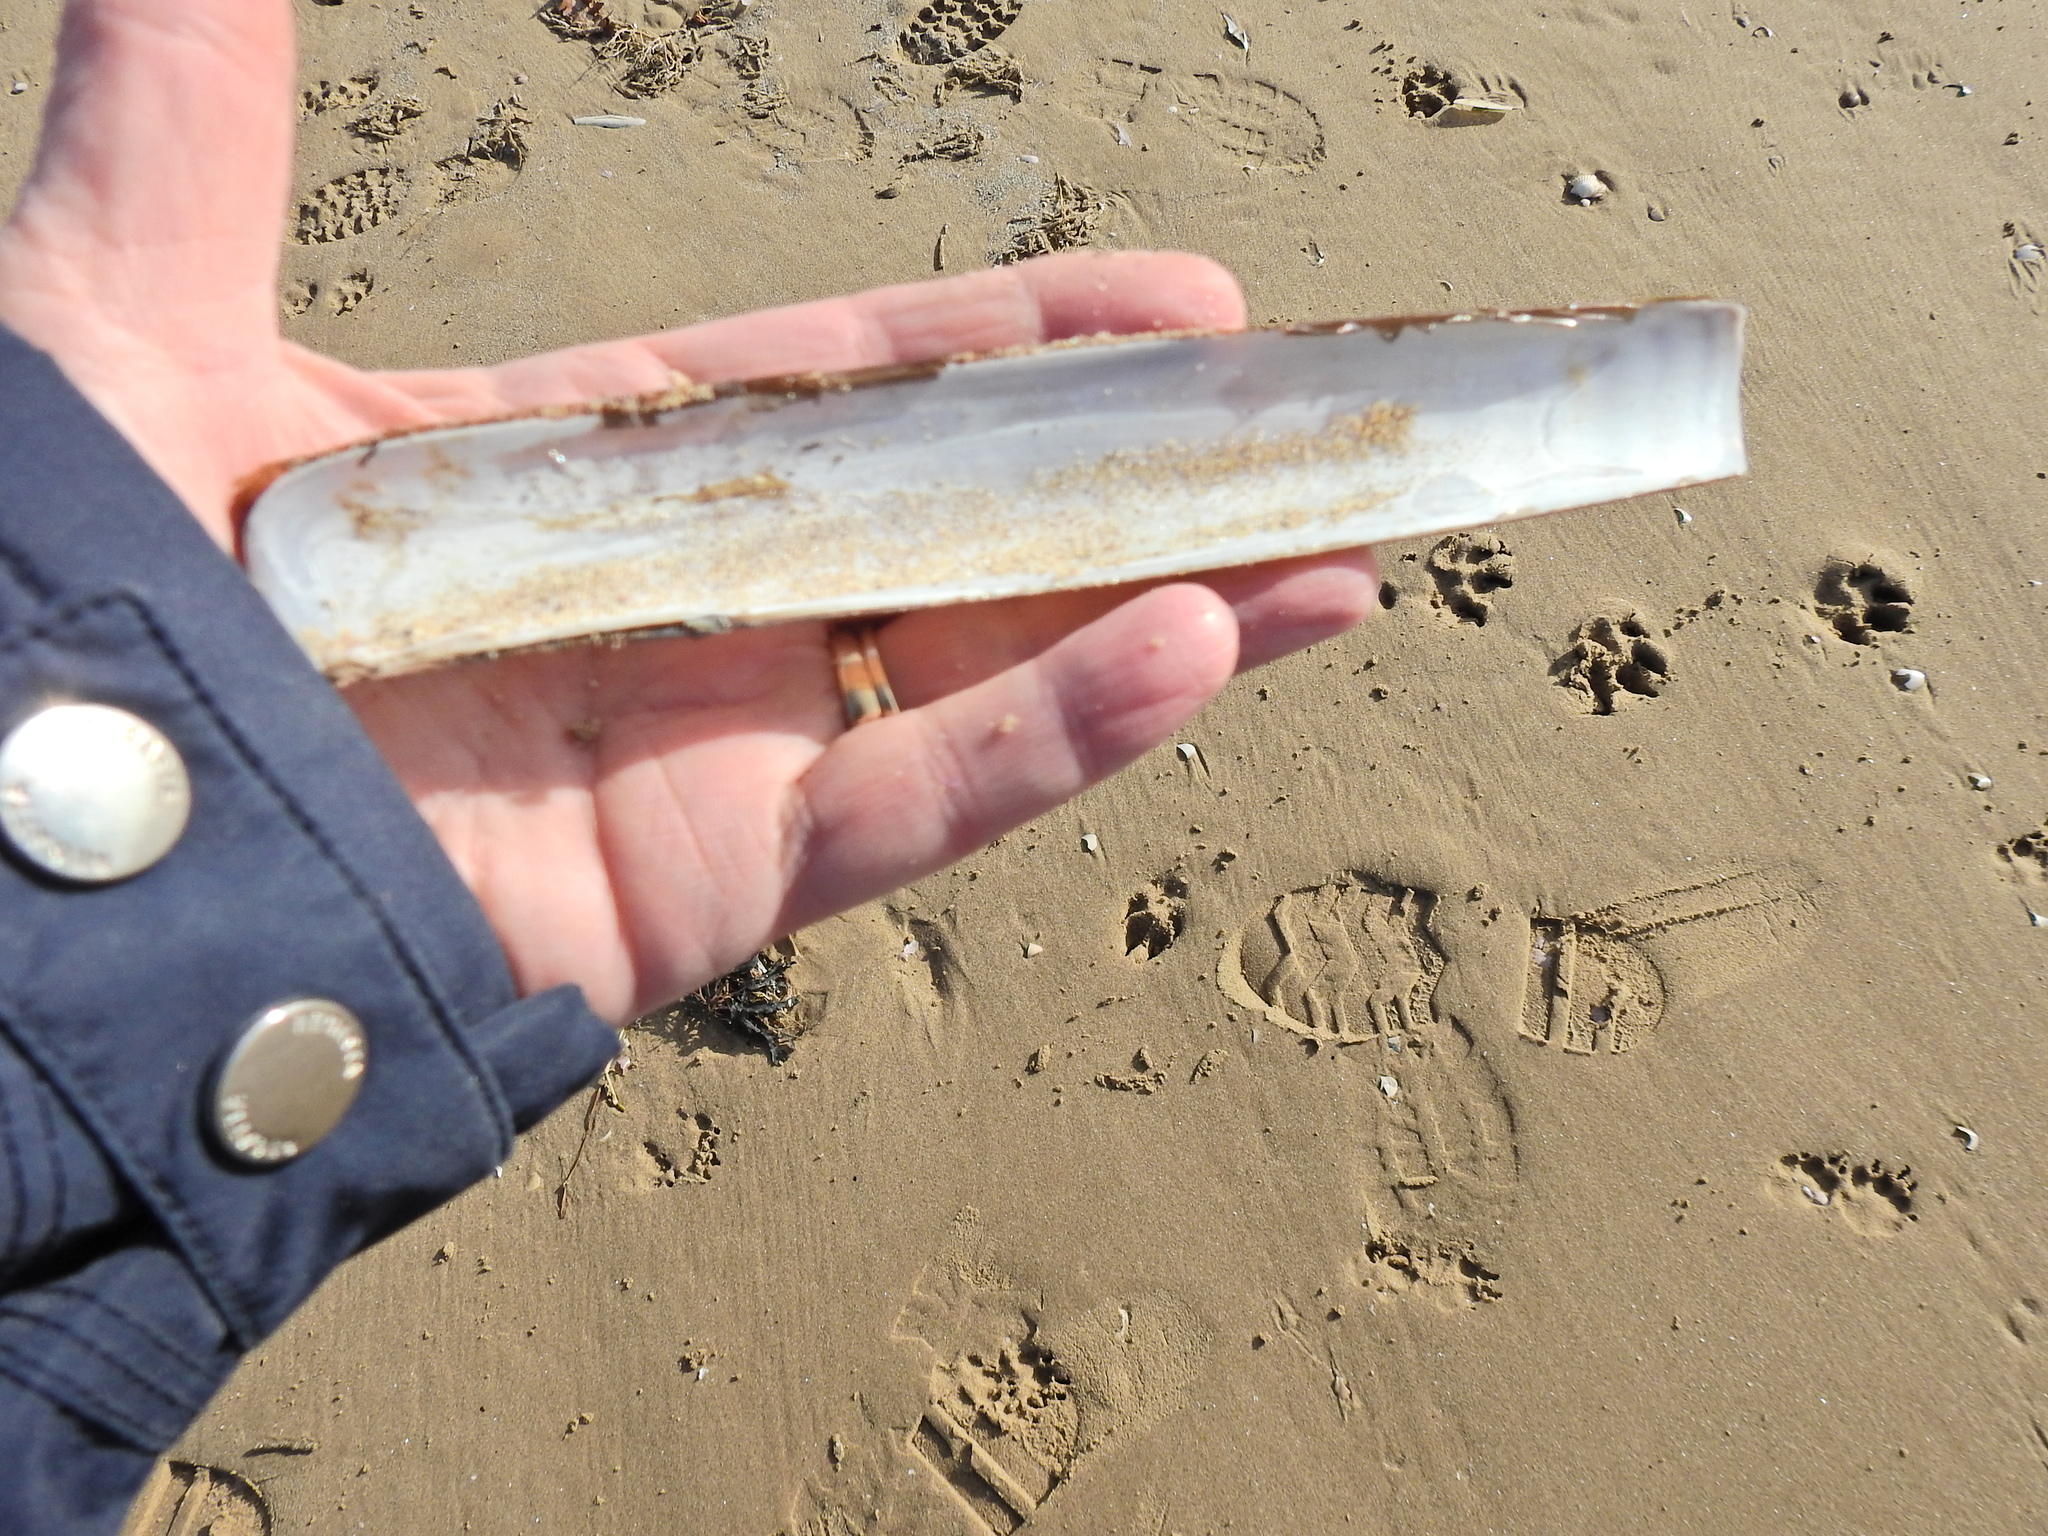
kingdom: Animalia
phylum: Mollusca
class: Bivalvia
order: Adapedonta
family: Pharidae
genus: Ensis
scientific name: Ensis siliqua
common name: Pod razor shell
